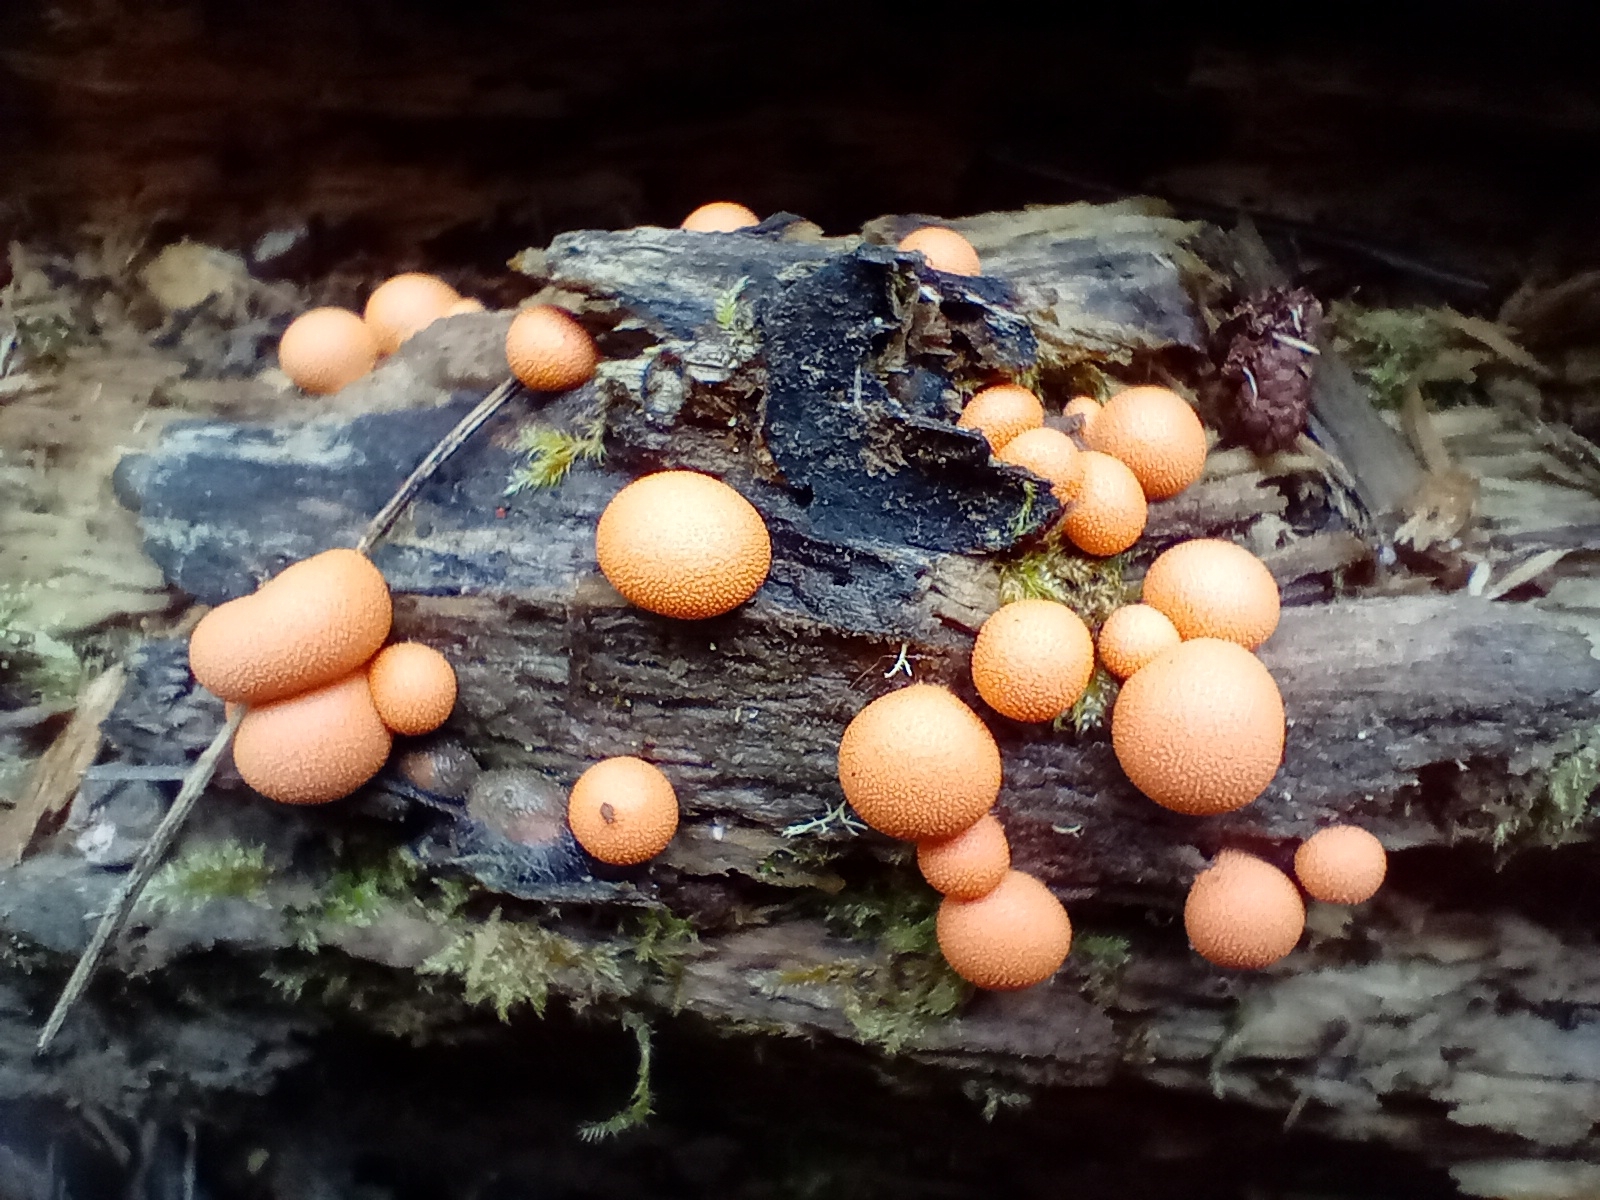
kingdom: Protozoa
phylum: Mycetozoa
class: Myxomycetes
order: Cribrariales
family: Tubiferaceae
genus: Lycogala
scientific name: Lycogala epidendrum
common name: Wolf's milk
